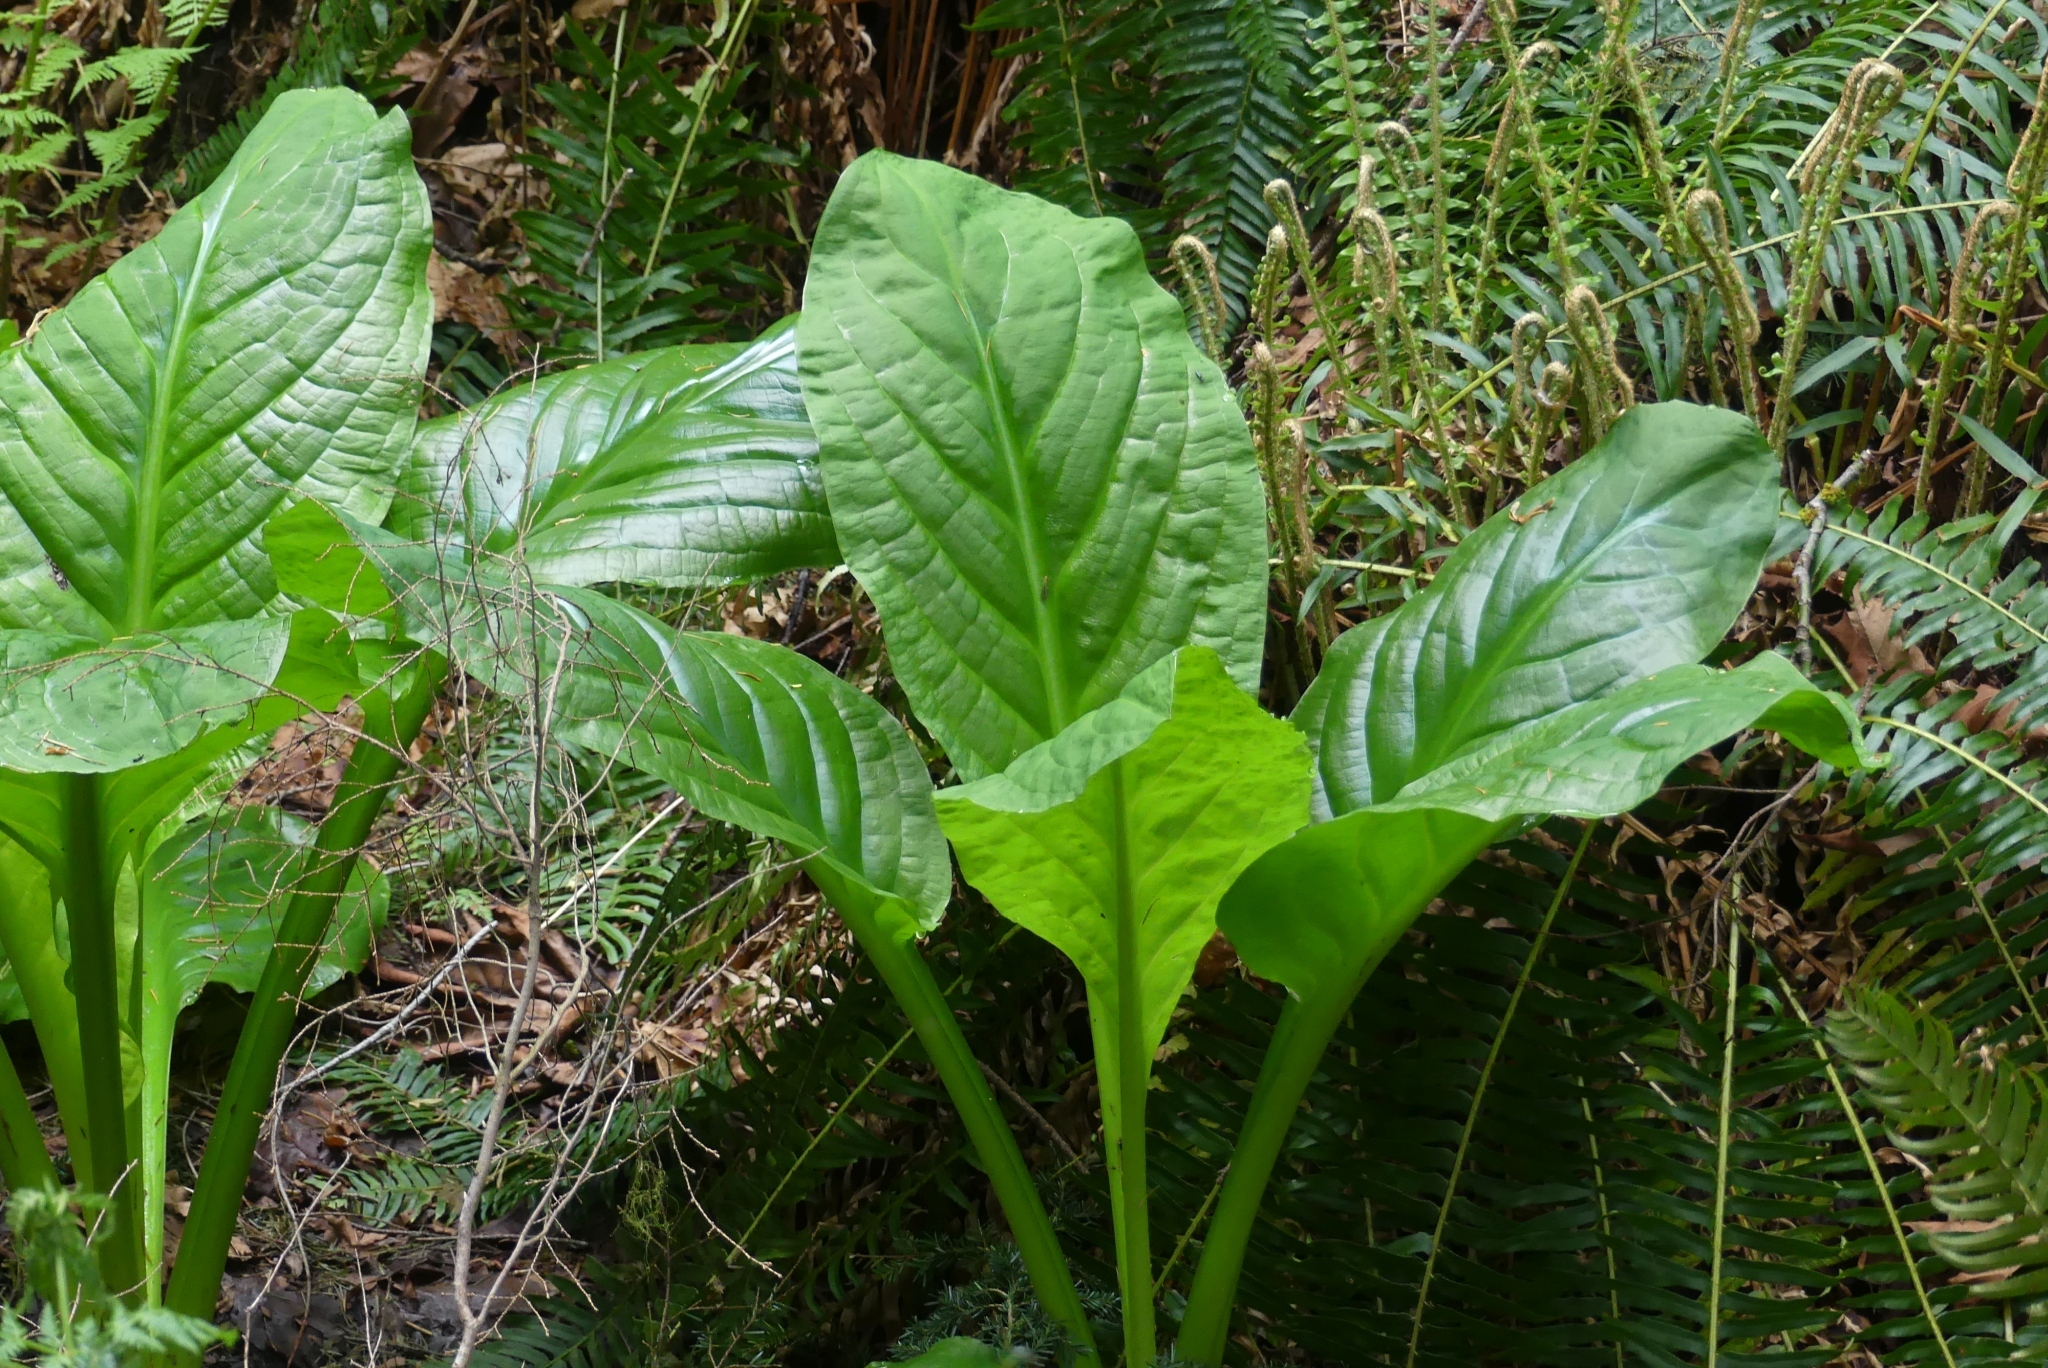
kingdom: Plantae
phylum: Tracheophyta
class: Liliopsida
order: Alismatales
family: Araceae
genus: Lysichiton
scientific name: Lysichiton americanus
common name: American skunk cabbage
